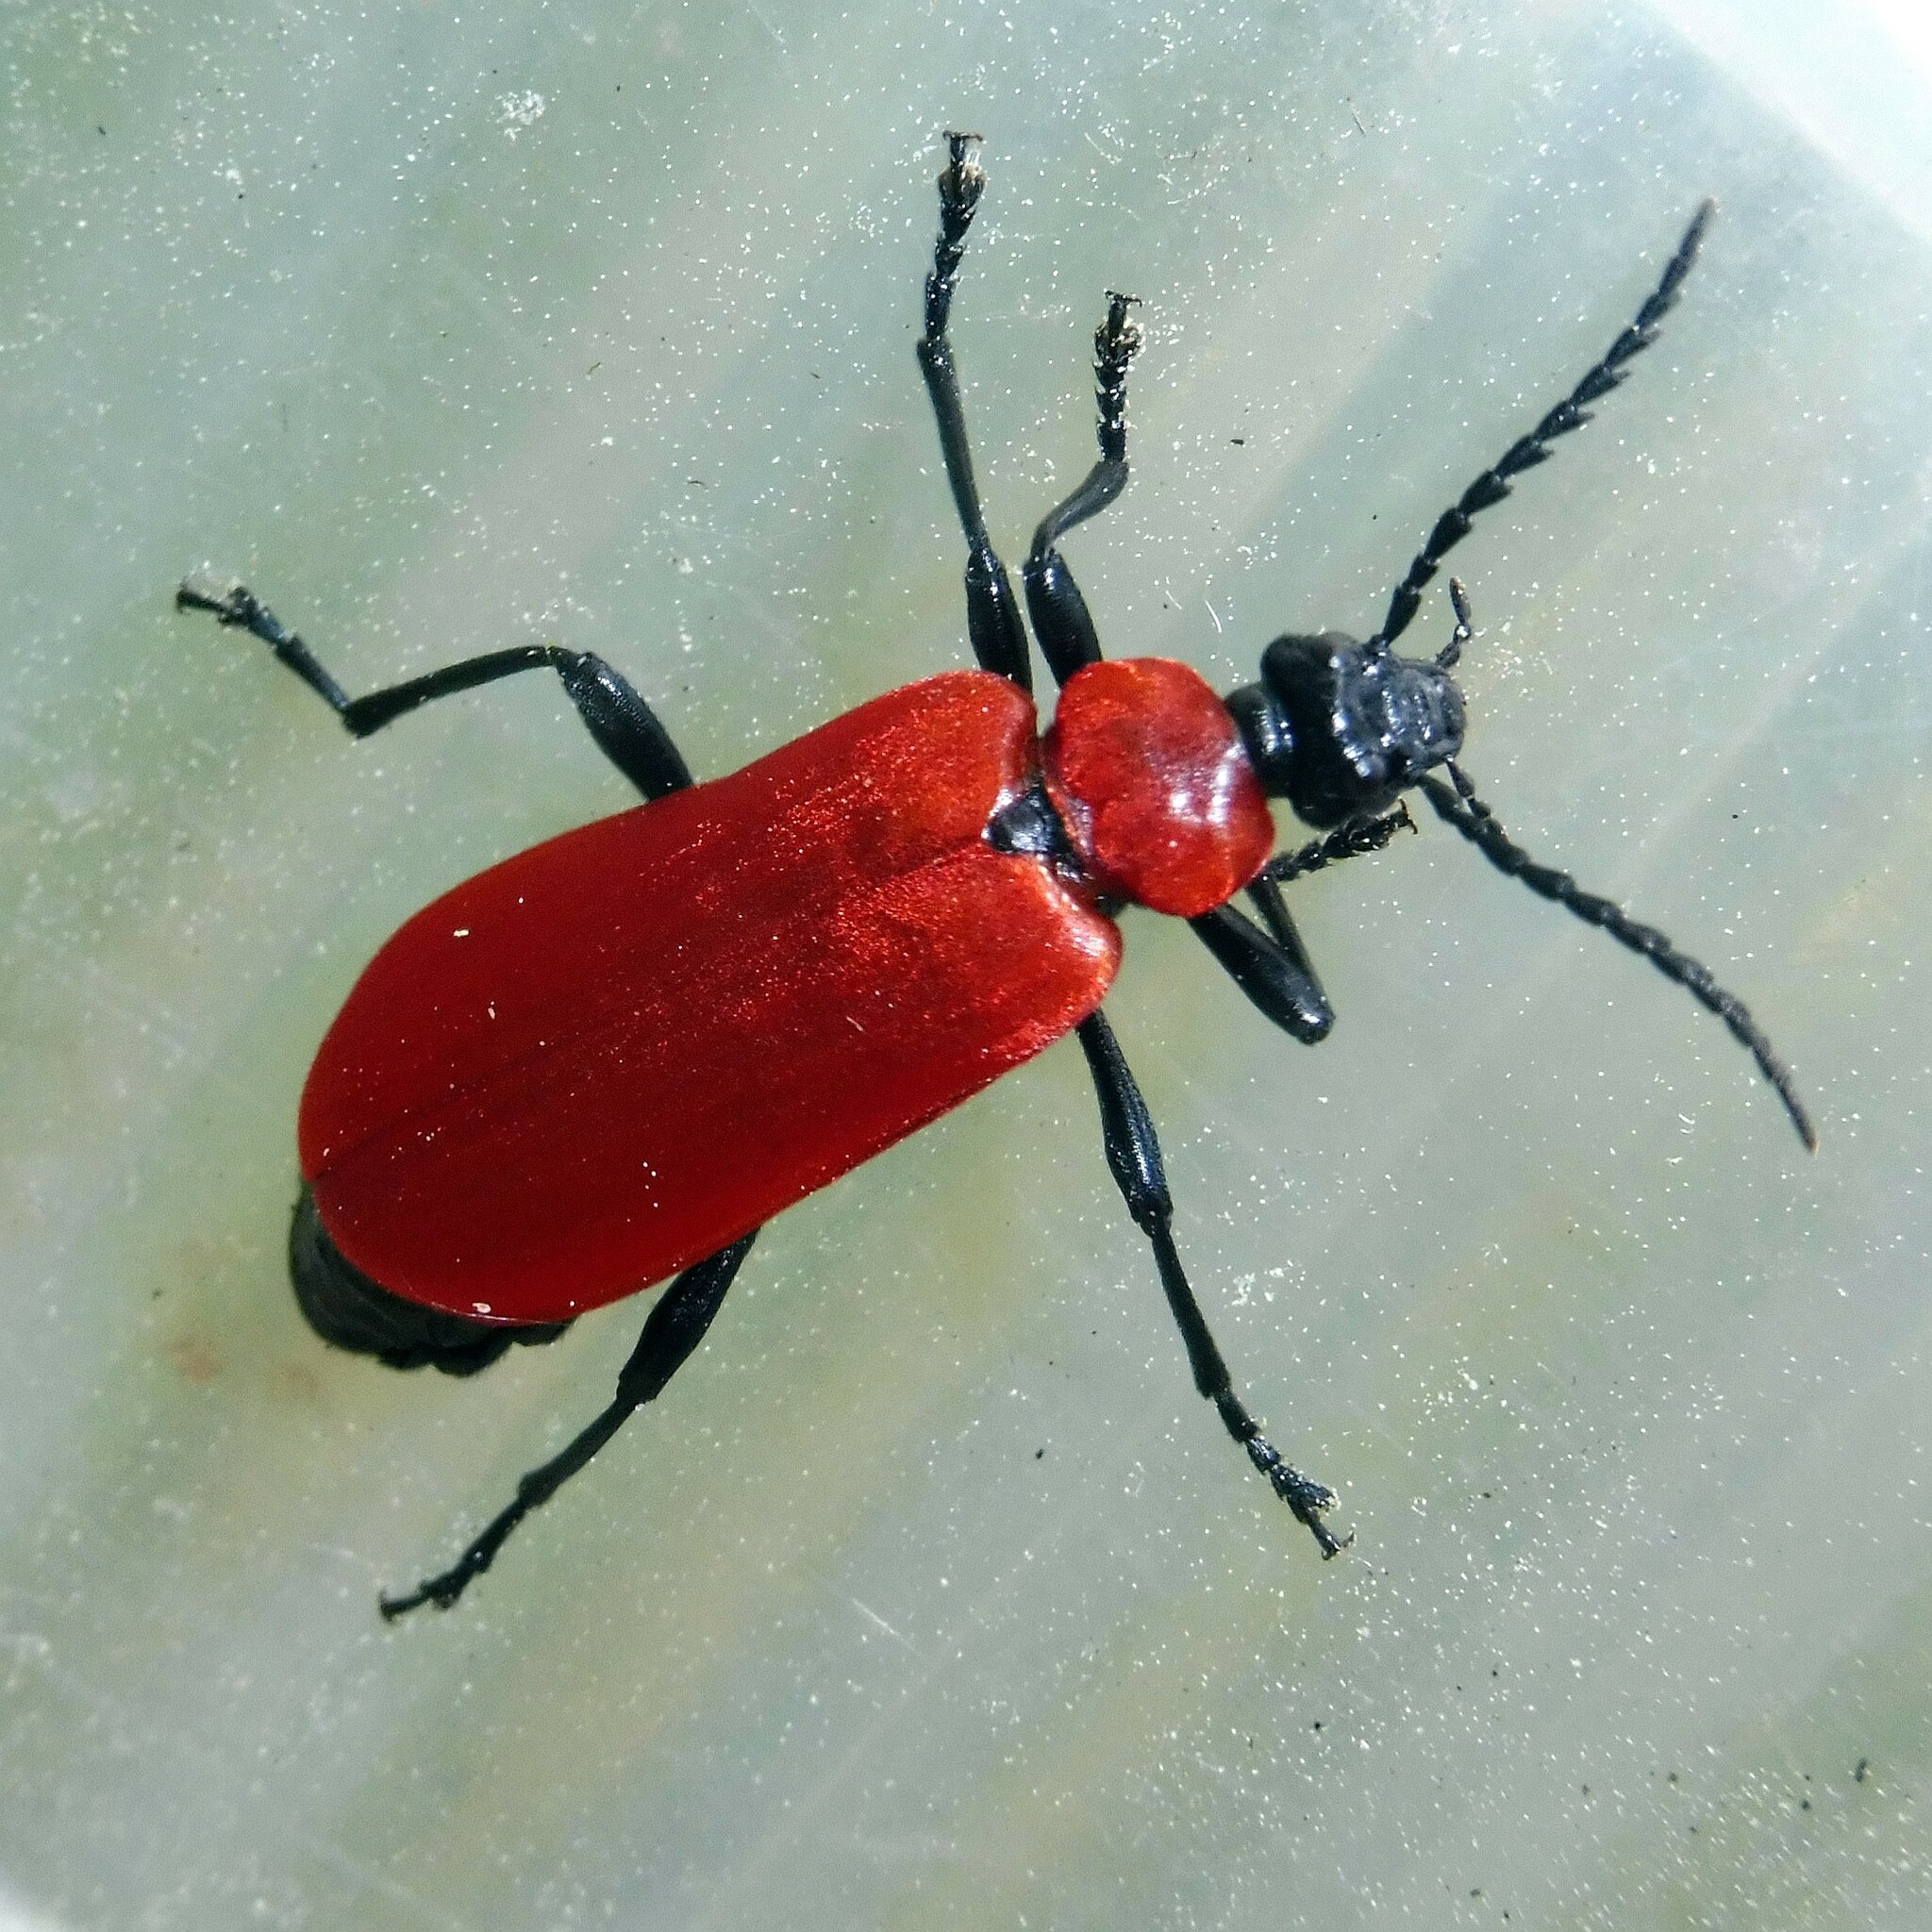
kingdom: Animalia
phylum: Arthropoda
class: Insecta
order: Coleoptera
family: Pyrochroidae
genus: Pyrochroa
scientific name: Pyrochroa coccinea
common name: Black-headed cardinal beetle
